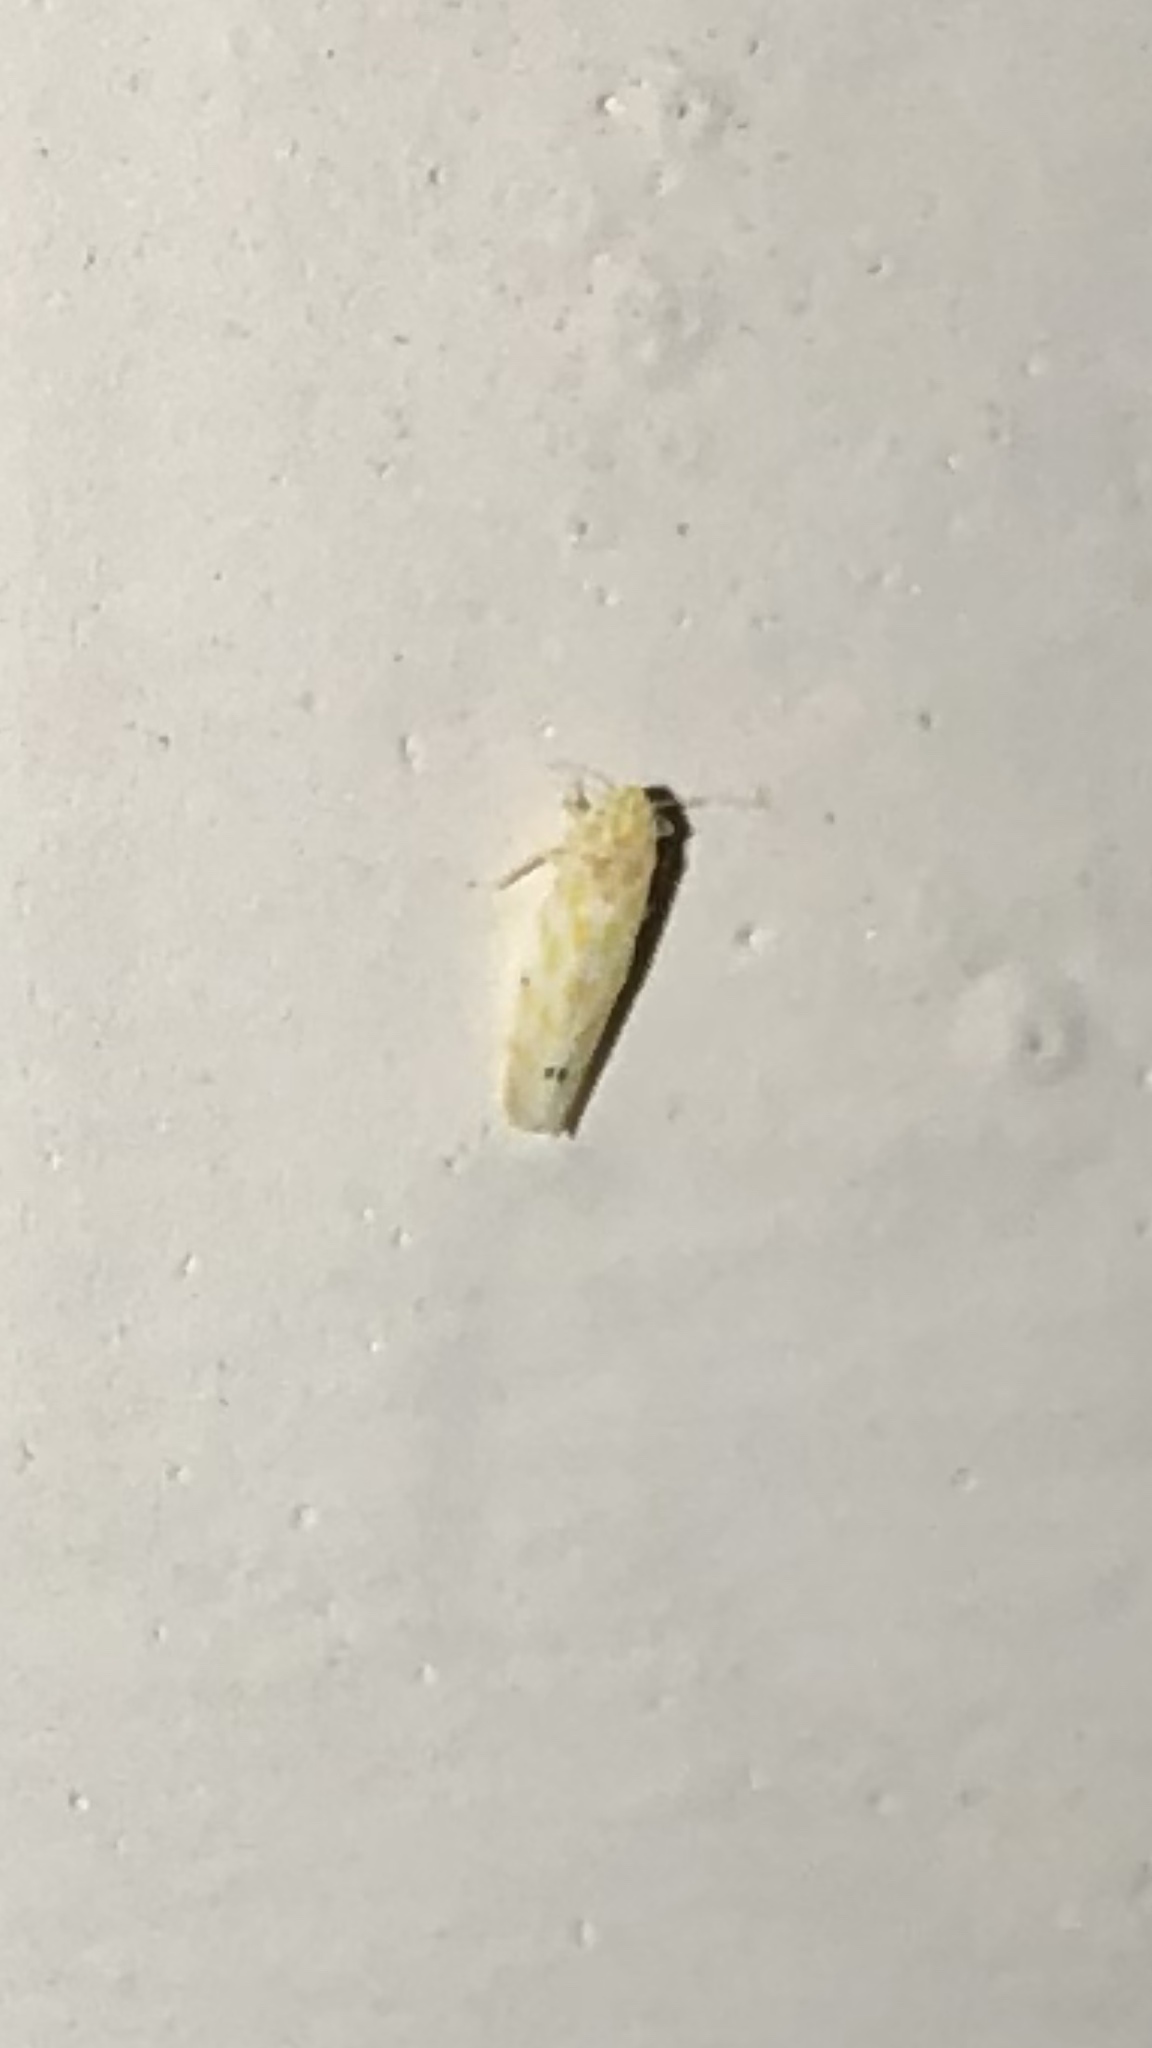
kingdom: Animalia
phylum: Arthropoda
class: Insecta
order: Hemiptera
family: Cicadellidae
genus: Eratoneura
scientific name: Eratoneura
